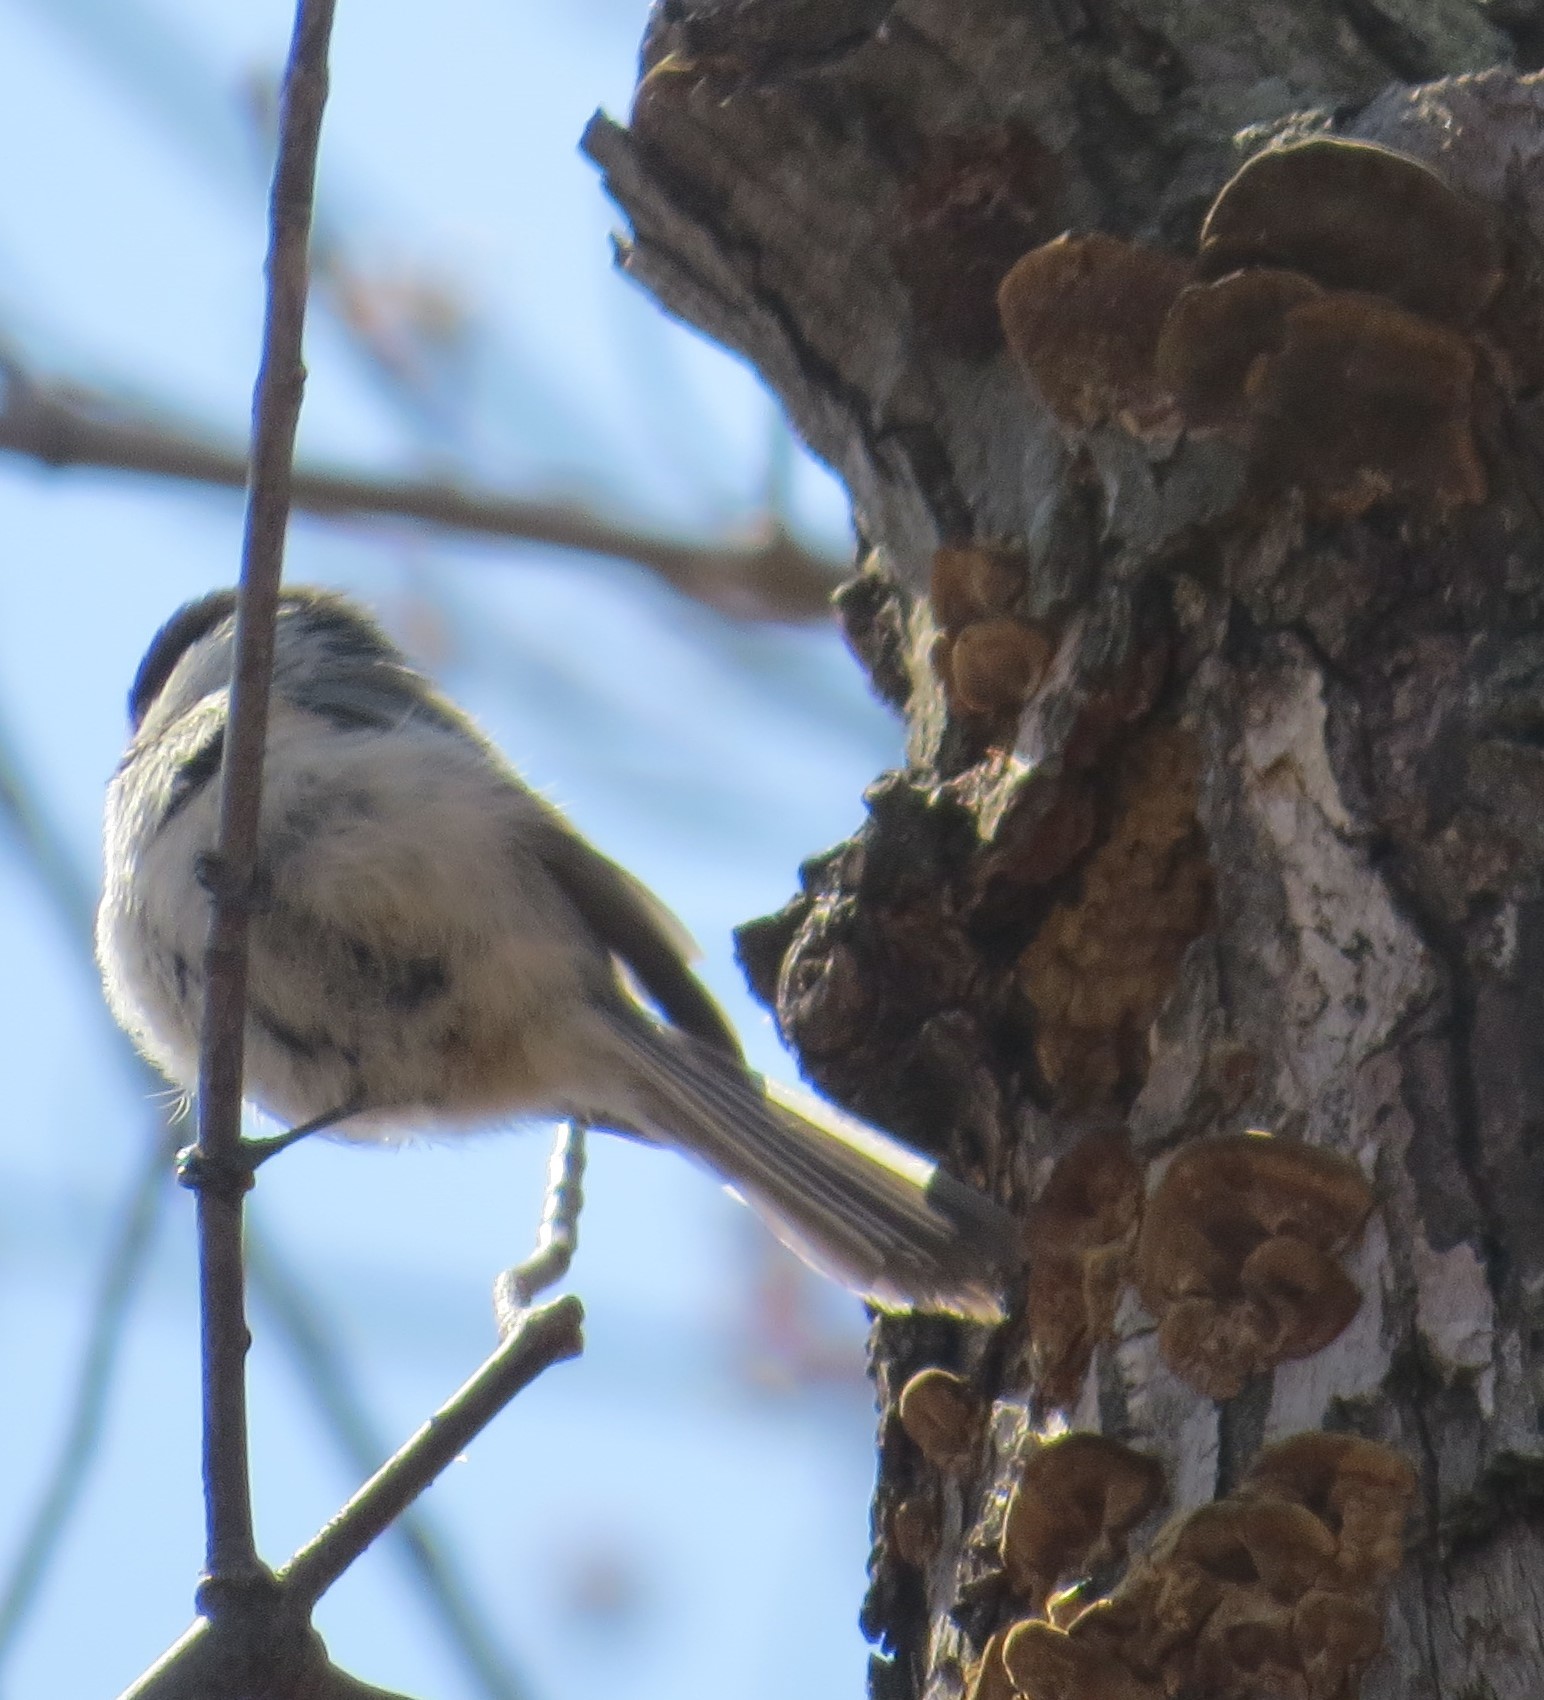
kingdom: Animalia
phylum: Chordata
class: Aves
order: Passeriformes
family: Paridae
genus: Poecile
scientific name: Poecile atricapillus
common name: Black-capped chickadee
